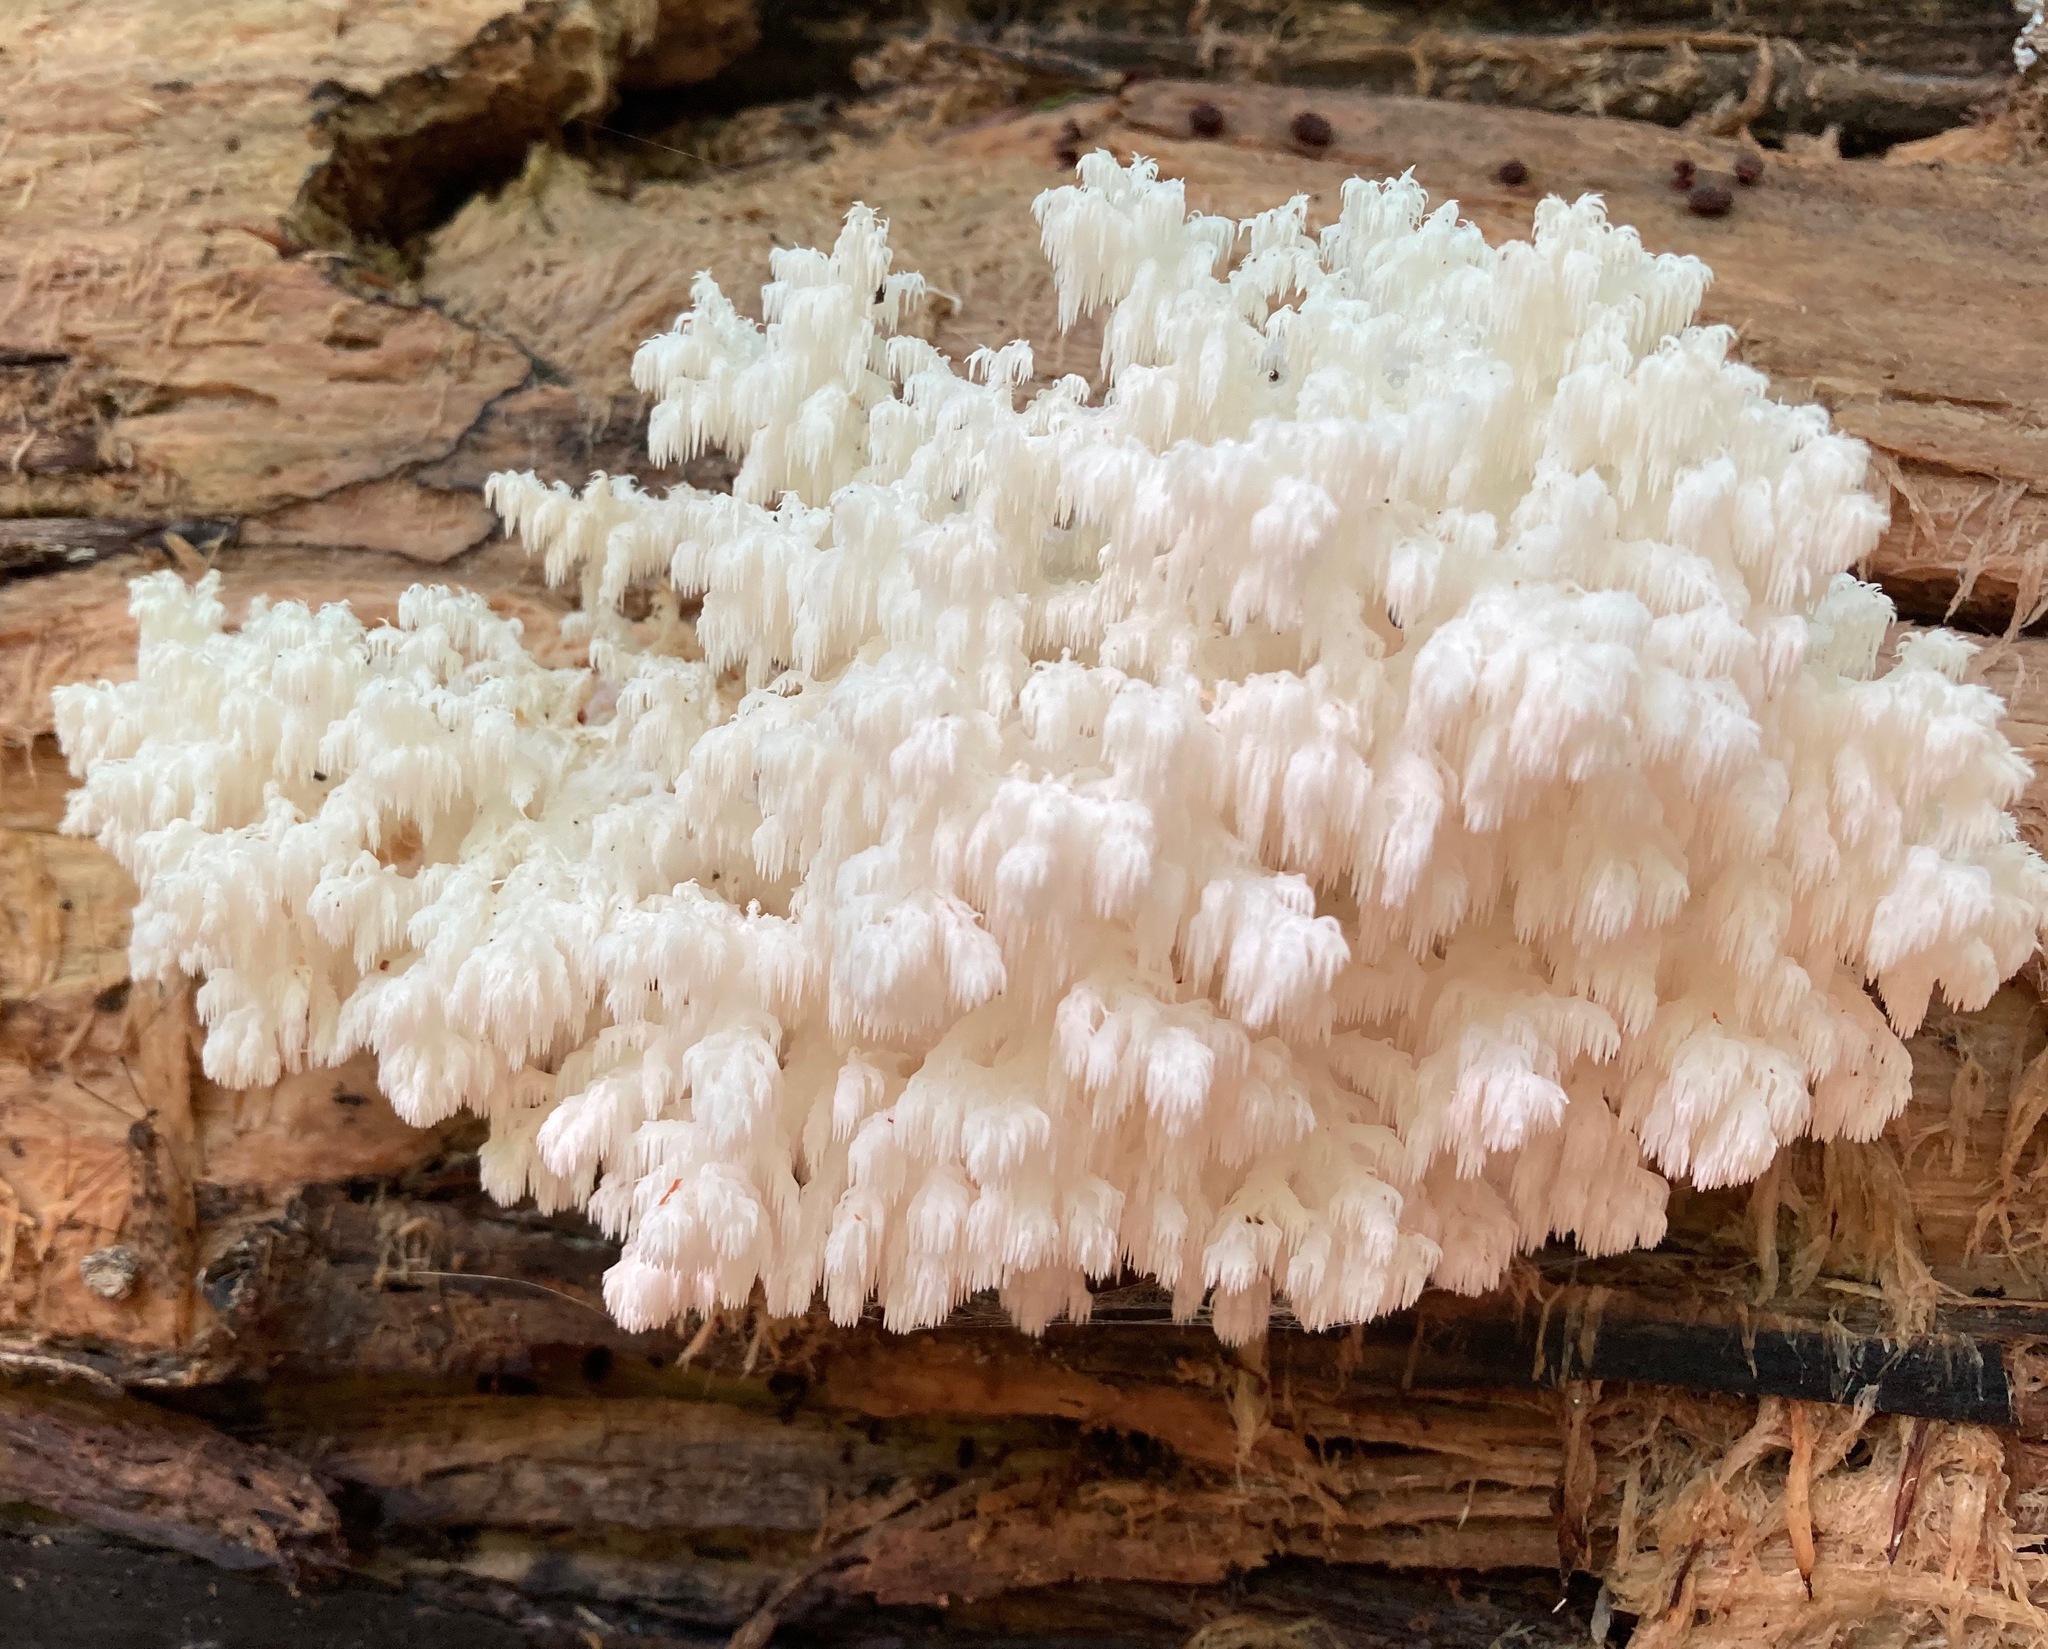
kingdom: Fungi
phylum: Basidiomycota
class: Agaricomycetes
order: Russulales
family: Hericiaceae
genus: Hericium
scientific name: Hericium coralloides
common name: Coral tooth
